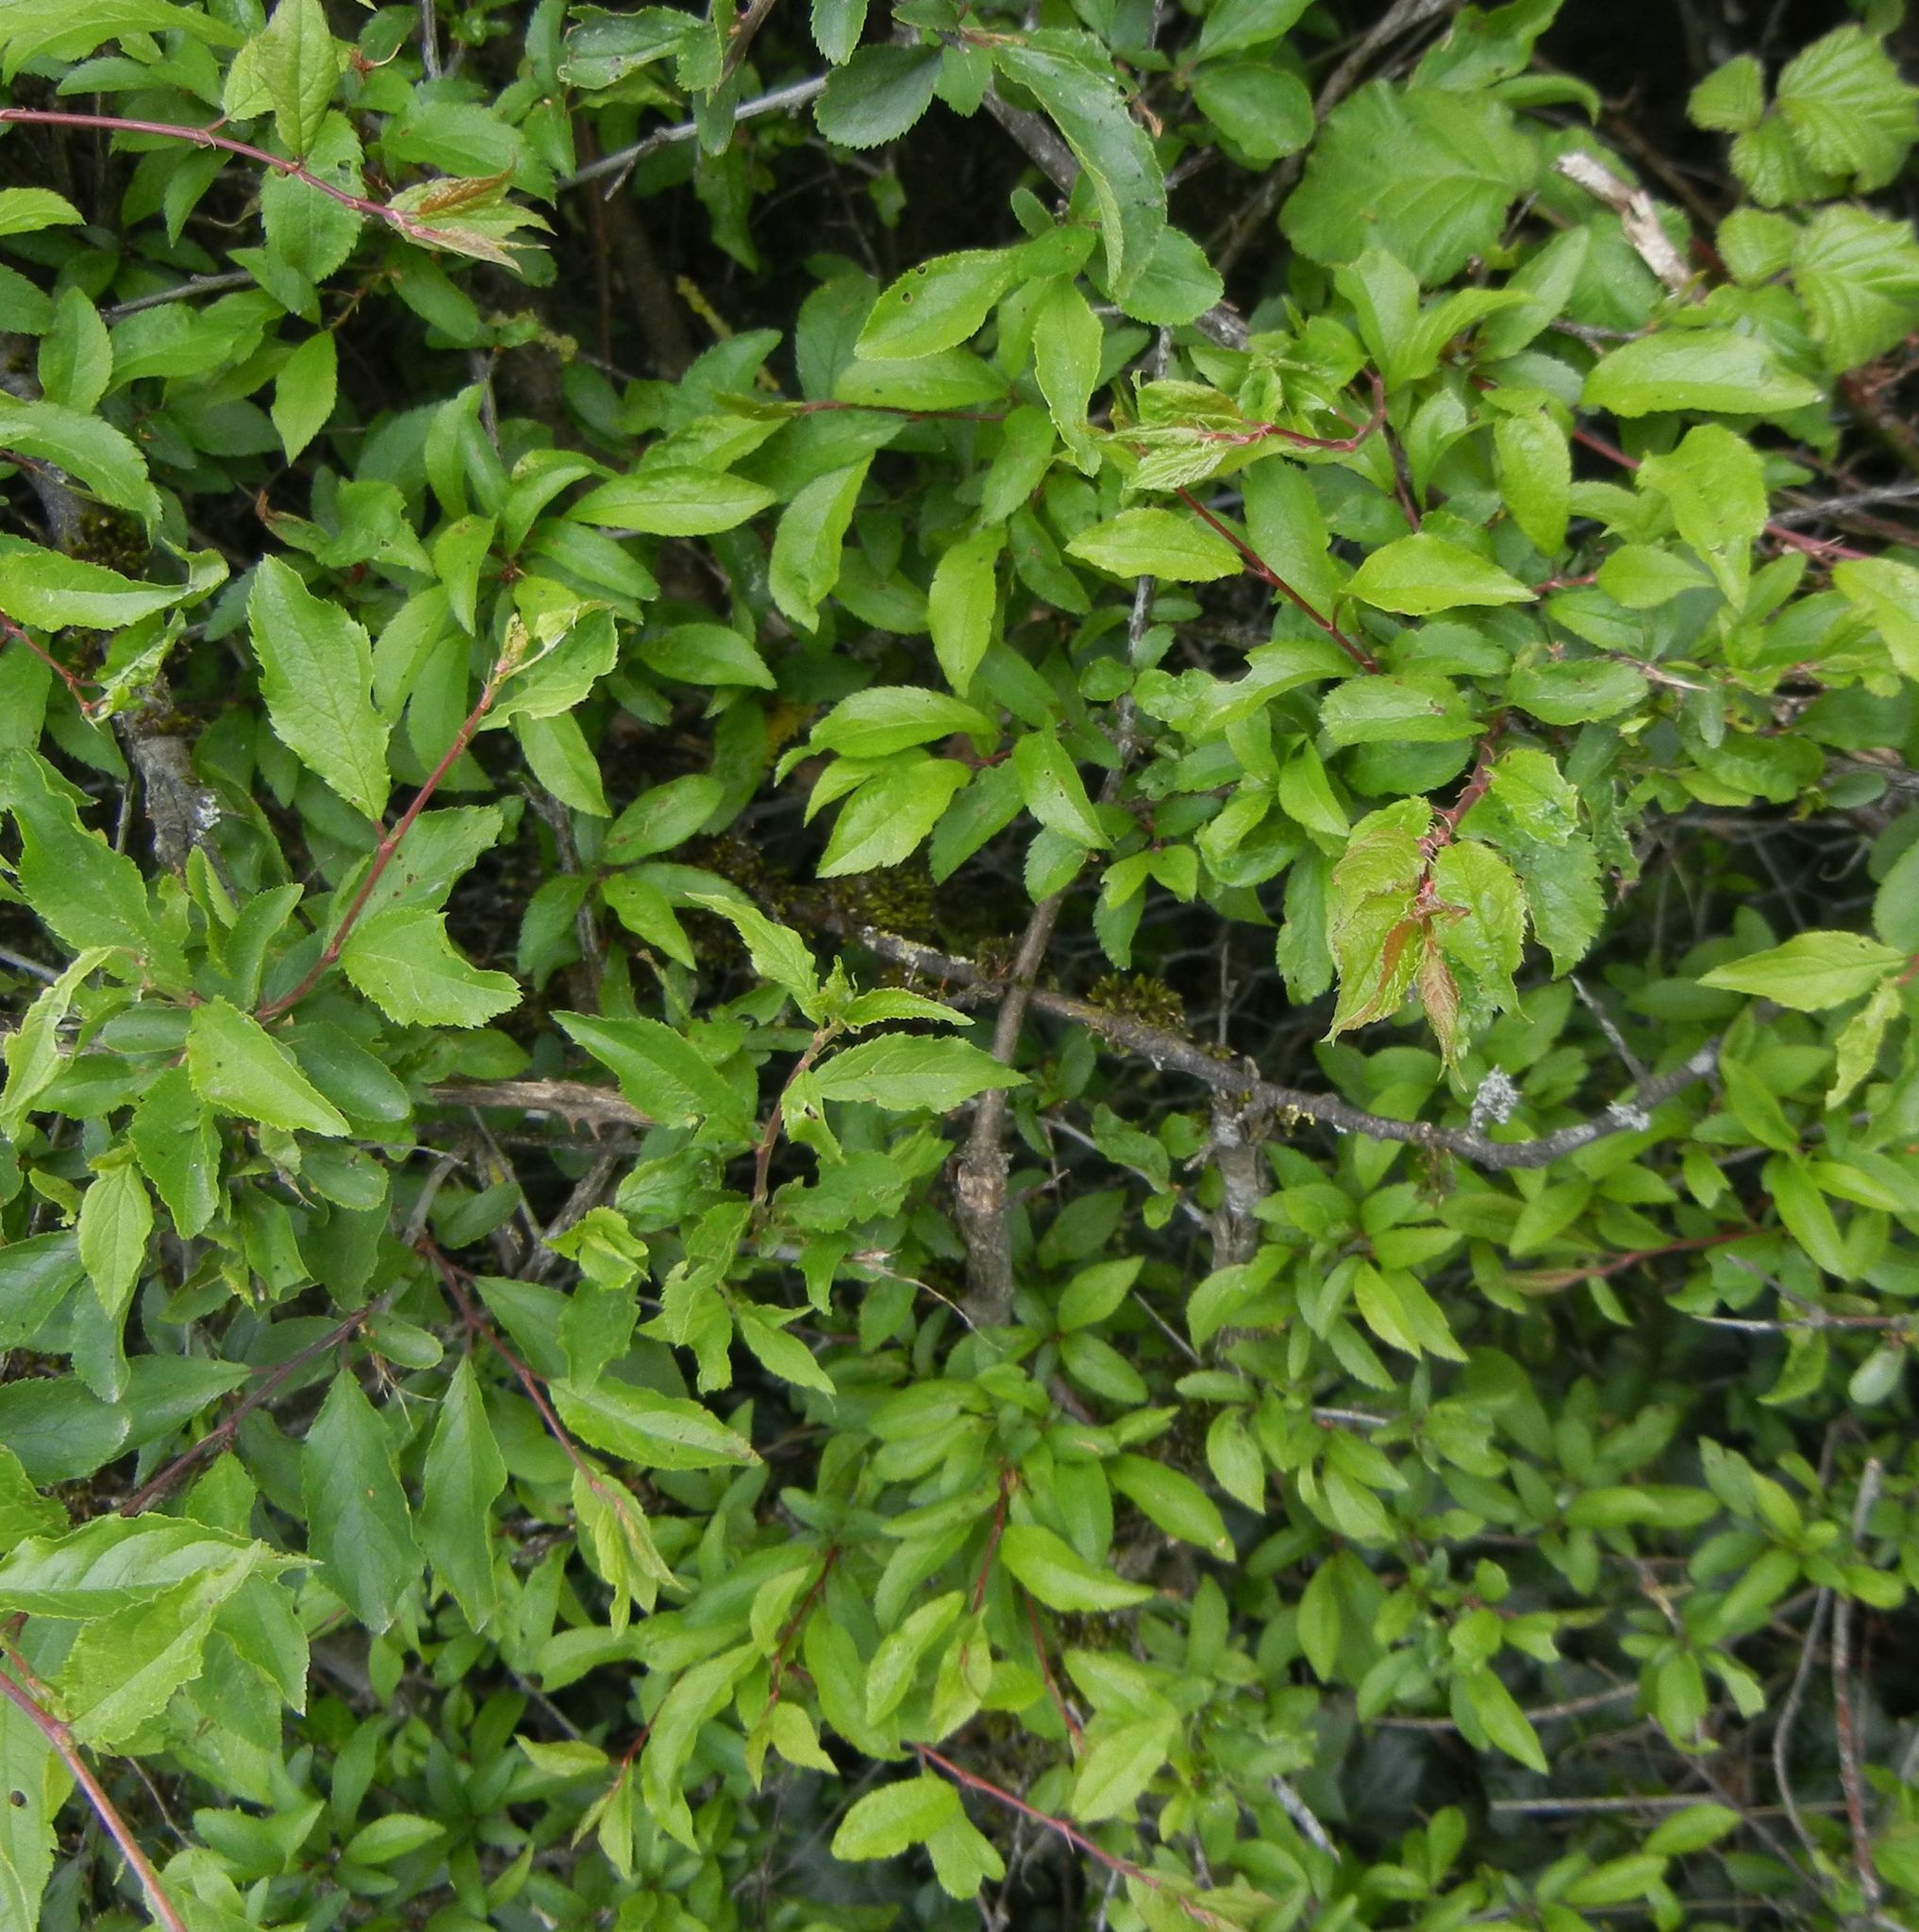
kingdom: Plantae
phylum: Tracheophyta
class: Magnoliopsida
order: Rosales
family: Rosaceae
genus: Prunus
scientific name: Prunus spinosa
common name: Blackthorn
